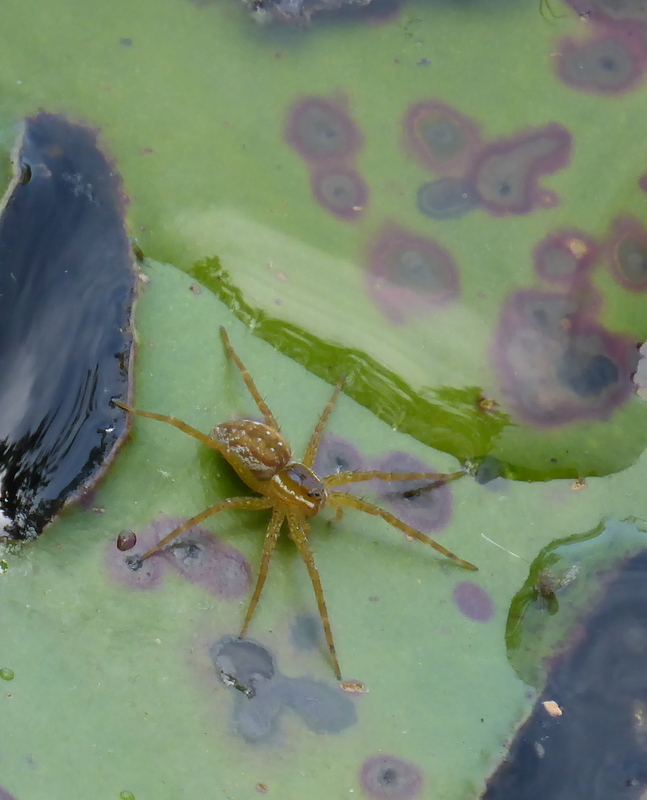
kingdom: Animalia
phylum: Arthropoda
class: Arachnida
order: Araneae
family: Pisauridae
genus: Dolomedes
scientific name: Dolomedes triton
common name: Six-spotted fishing spider
